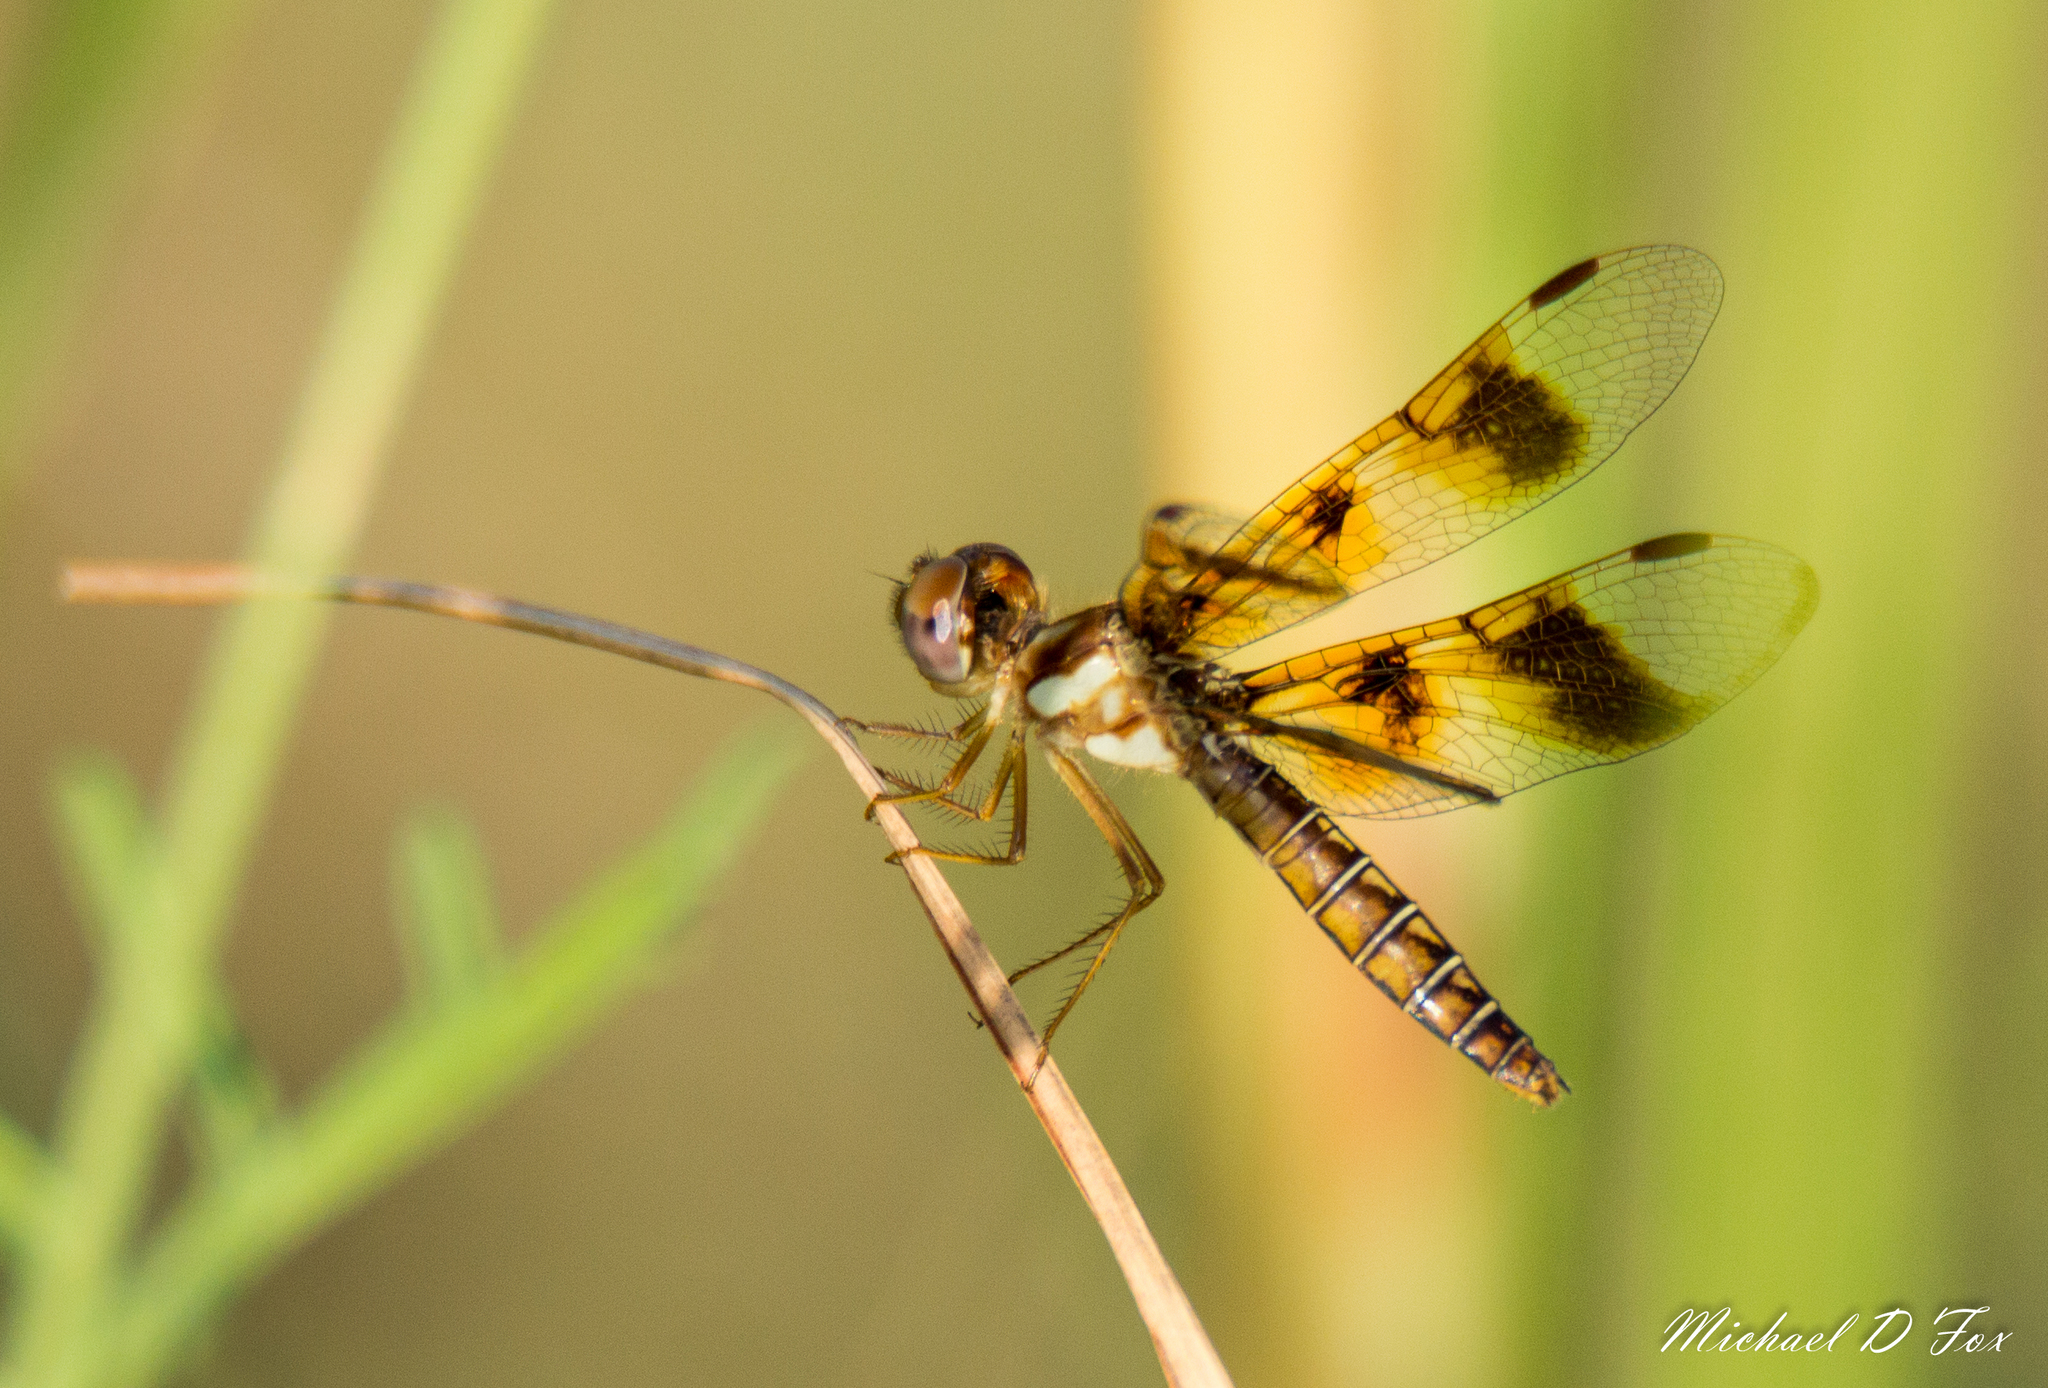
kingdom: Animalia
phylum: Arthropoda
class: Insecta
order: Odonata
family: Libellulidae
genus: Perithemis
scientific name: Perithemis tenera
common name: Eastern amberwing
